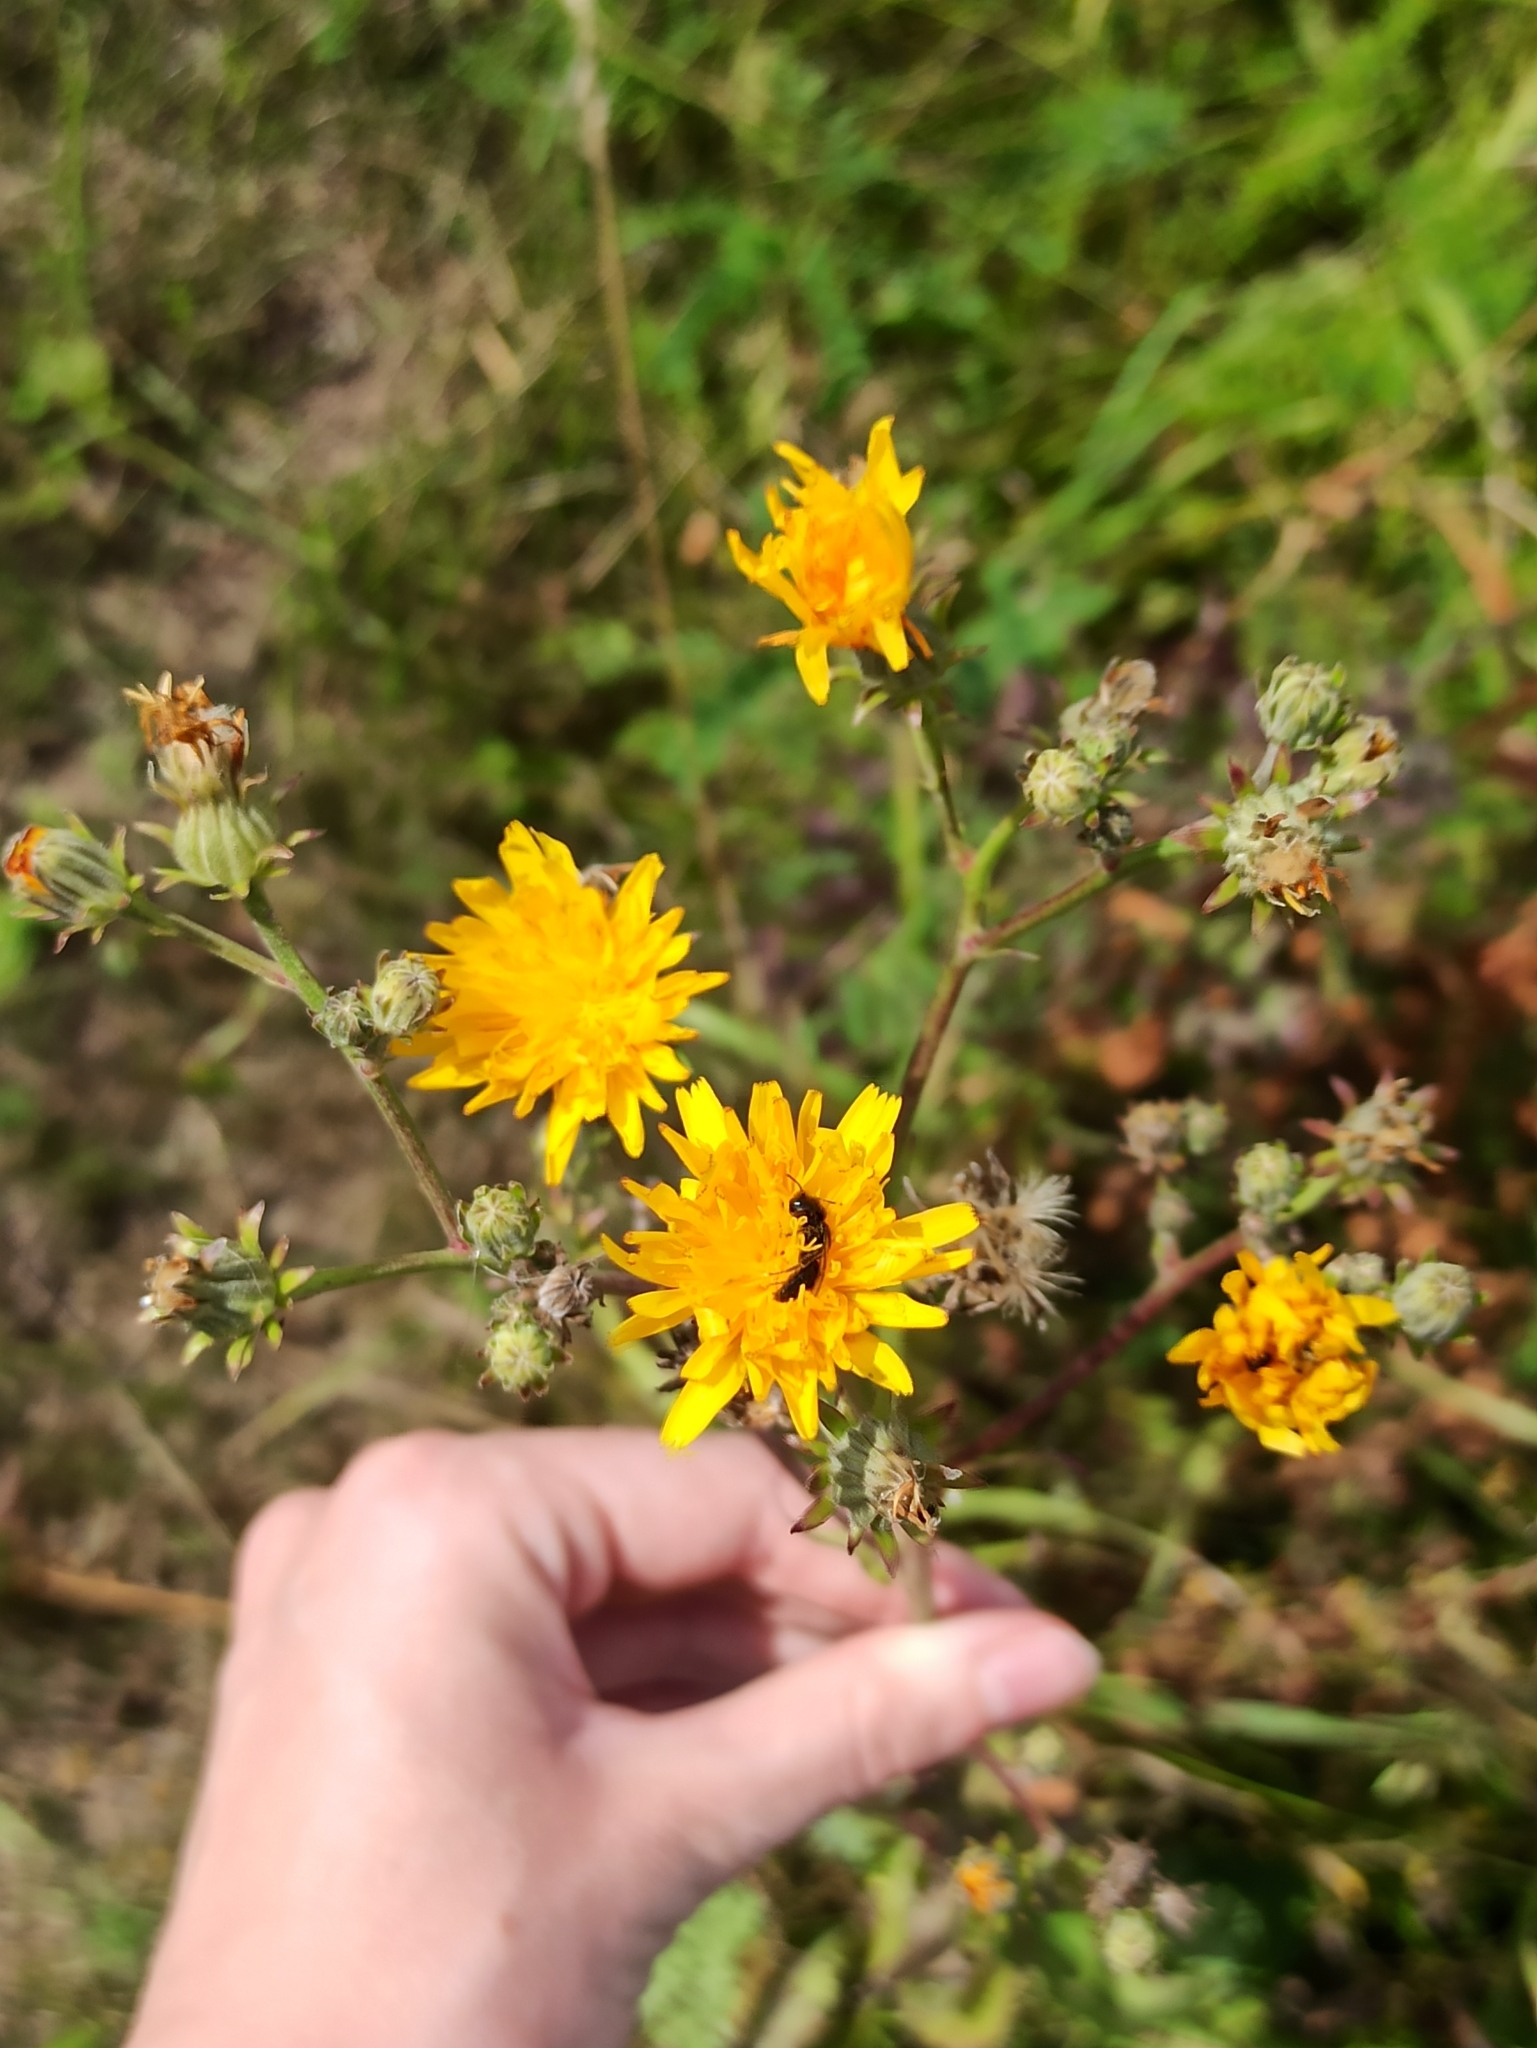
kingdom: Plantae
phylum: Tracheophyta
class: Magnoliopsida
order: Asterales
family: Asteraceae
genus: Picris
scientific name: Picris hieracioides
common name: Hawkweed oxtongue
